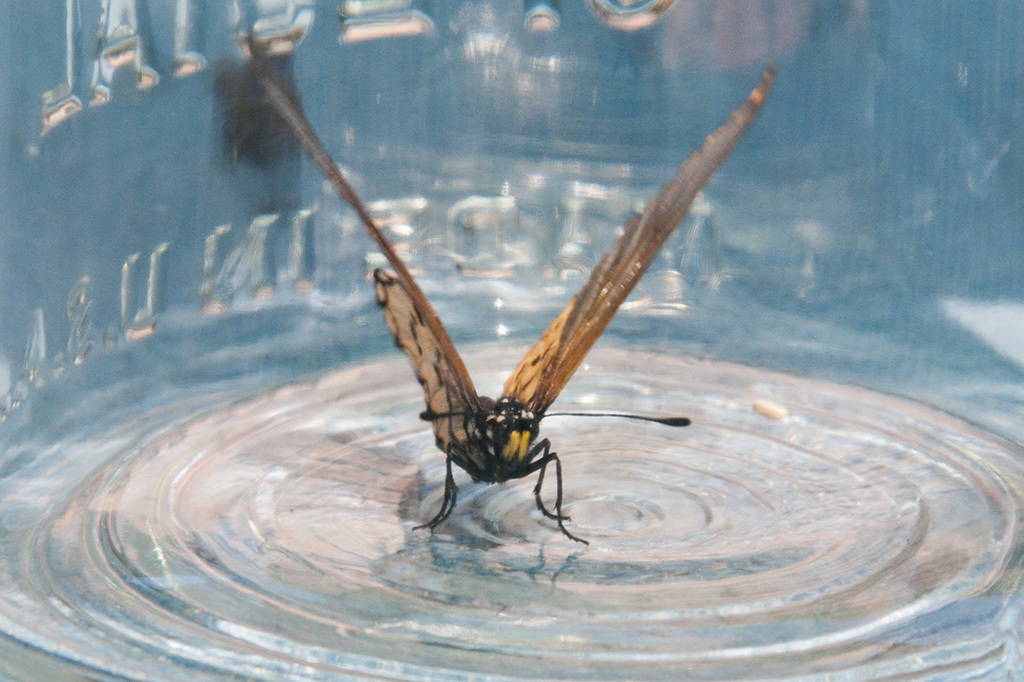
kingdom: Animalia
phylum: Arthropoda
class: Insecta
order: Lepidoptera
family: Nymphalidae
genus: Acraea
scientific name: Acraea horta
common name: Garden acraea
